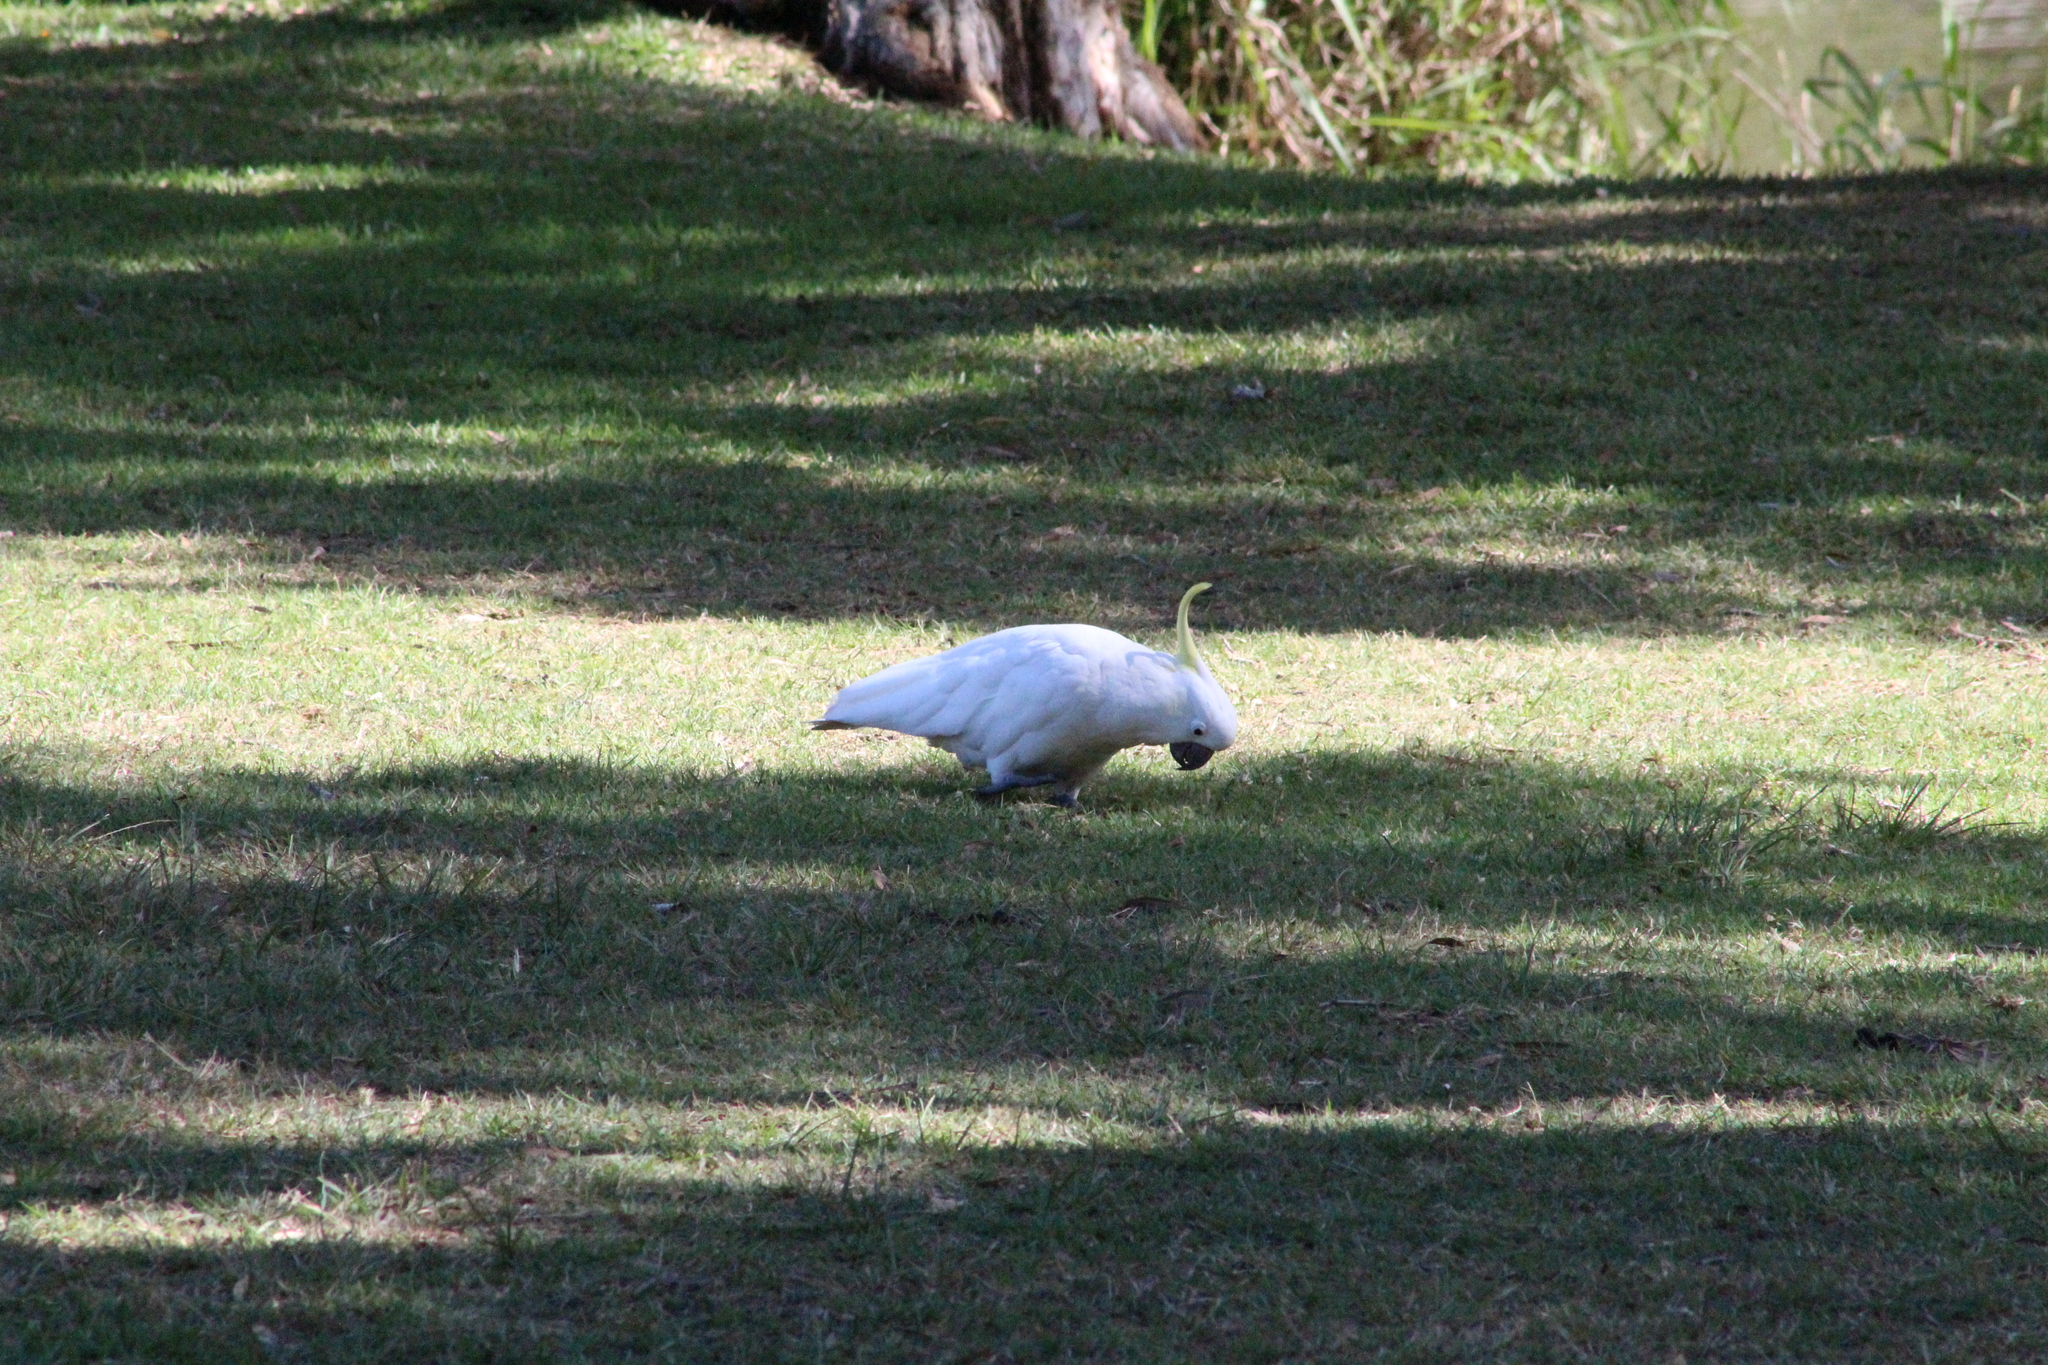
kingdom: Animalia
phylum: Chordata
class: Aves
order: Psittaciformes
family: Psittacidae
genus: Cacatua
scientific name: Cacatua galerita
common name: Sulphur-crested cockatoo
